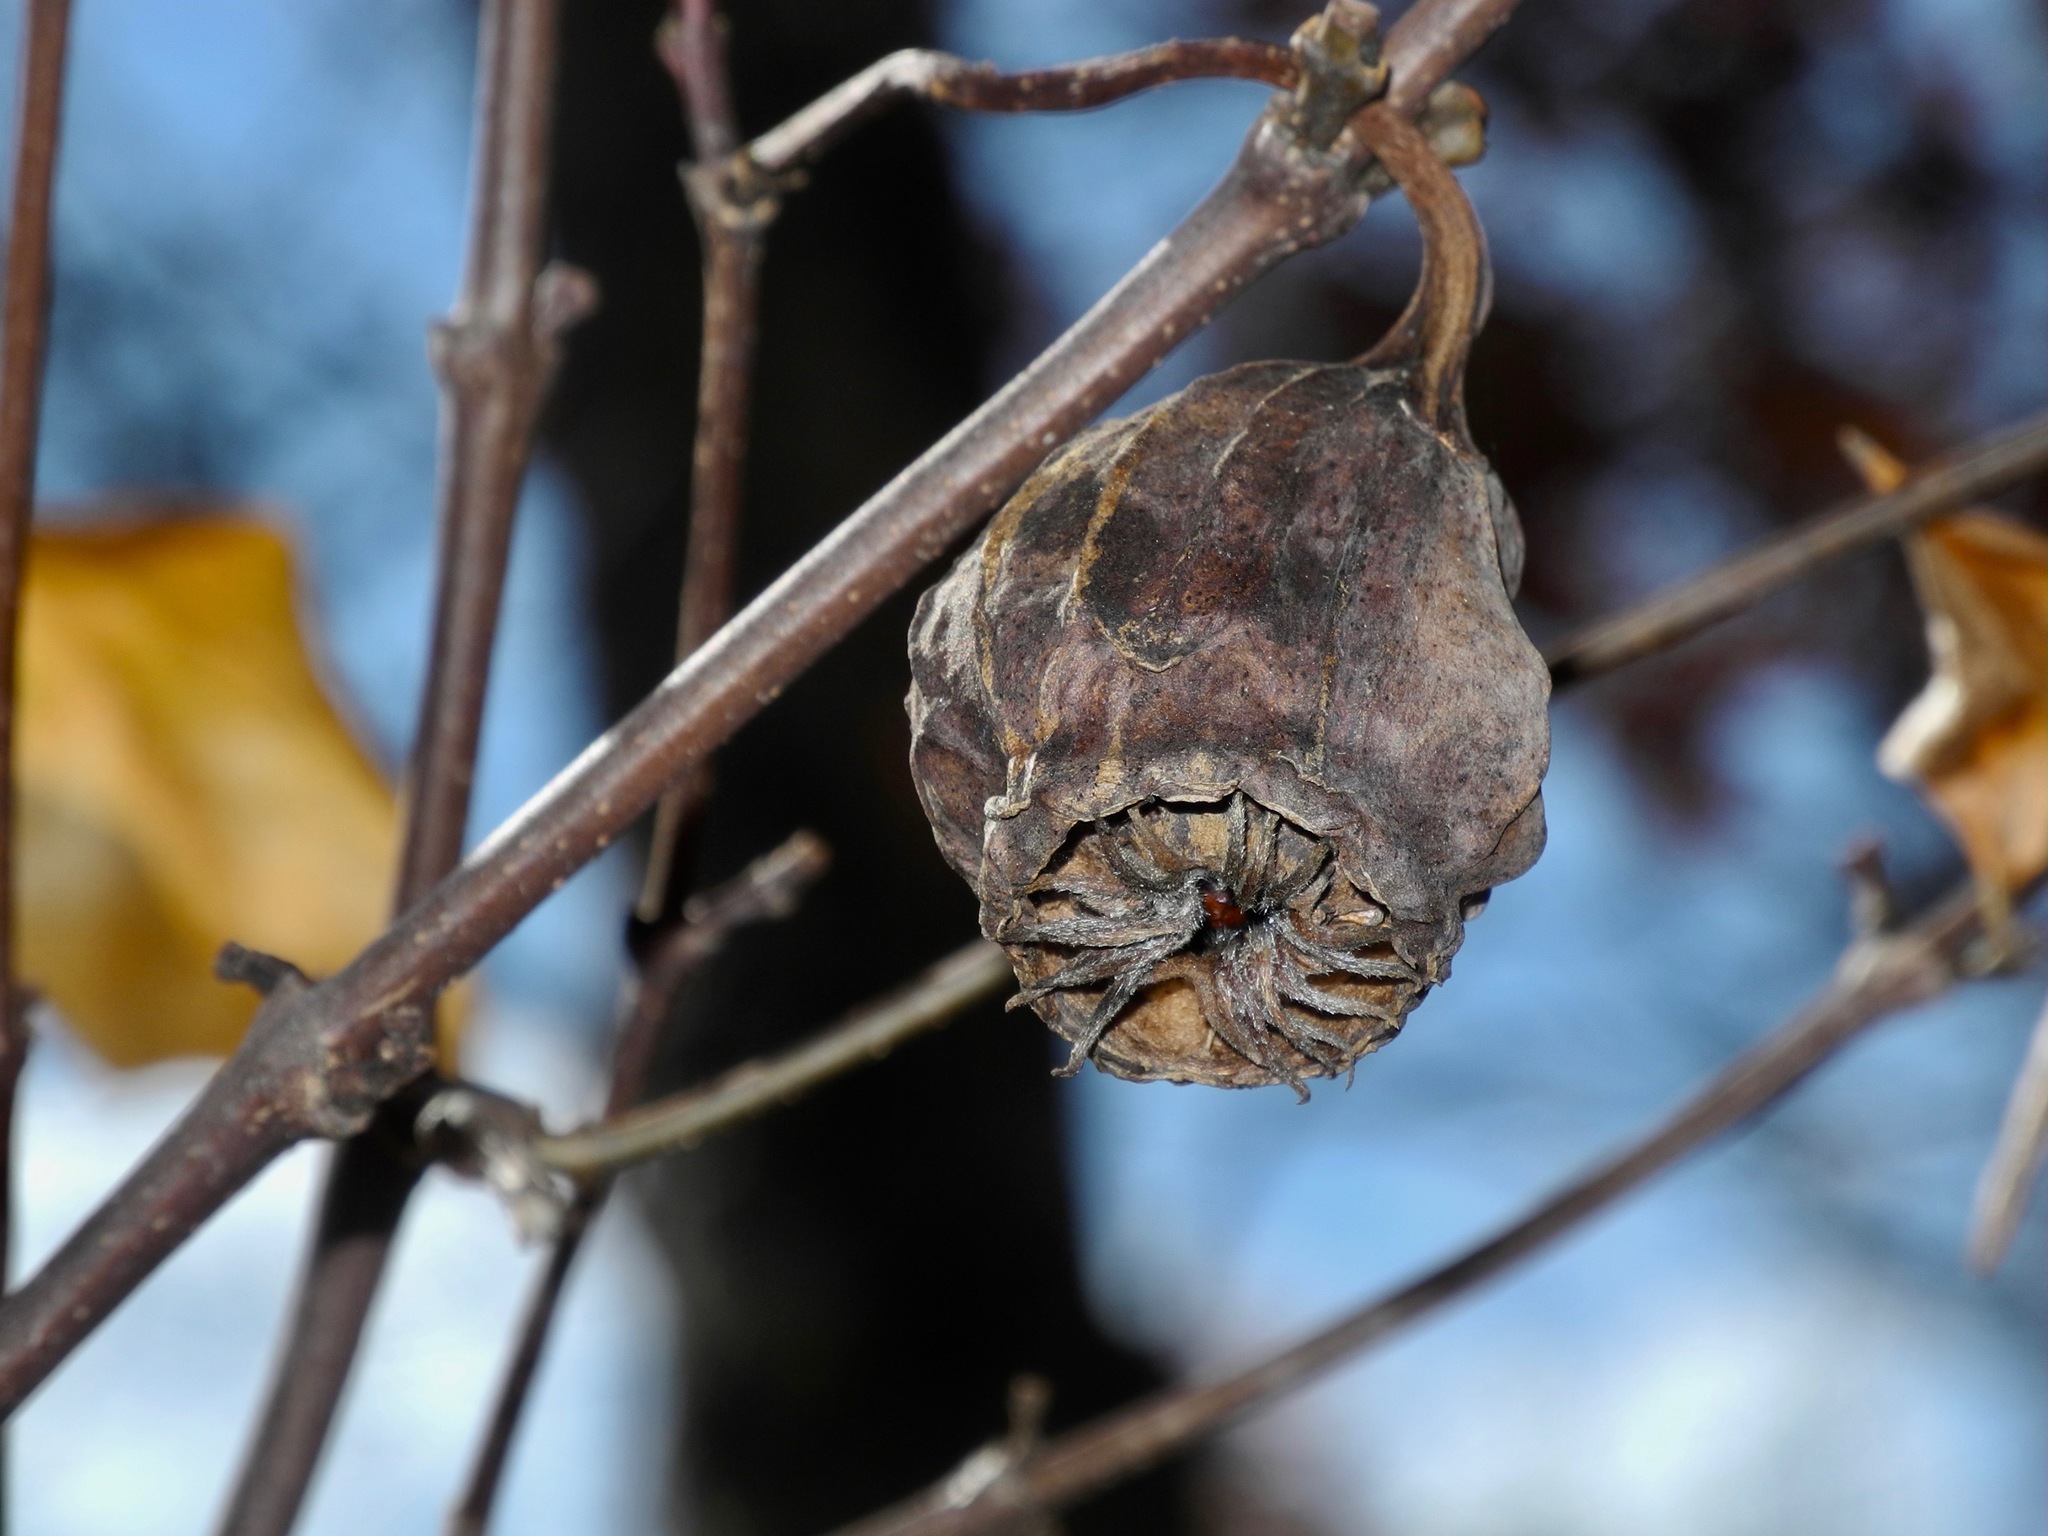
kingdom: Plantae
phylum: Tracheophyta
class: Magnoliopsida
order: Laurales
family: Calycanthaceae
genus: Calycanthus
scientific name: Calycanthus floridus
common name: Carolina-allspice
